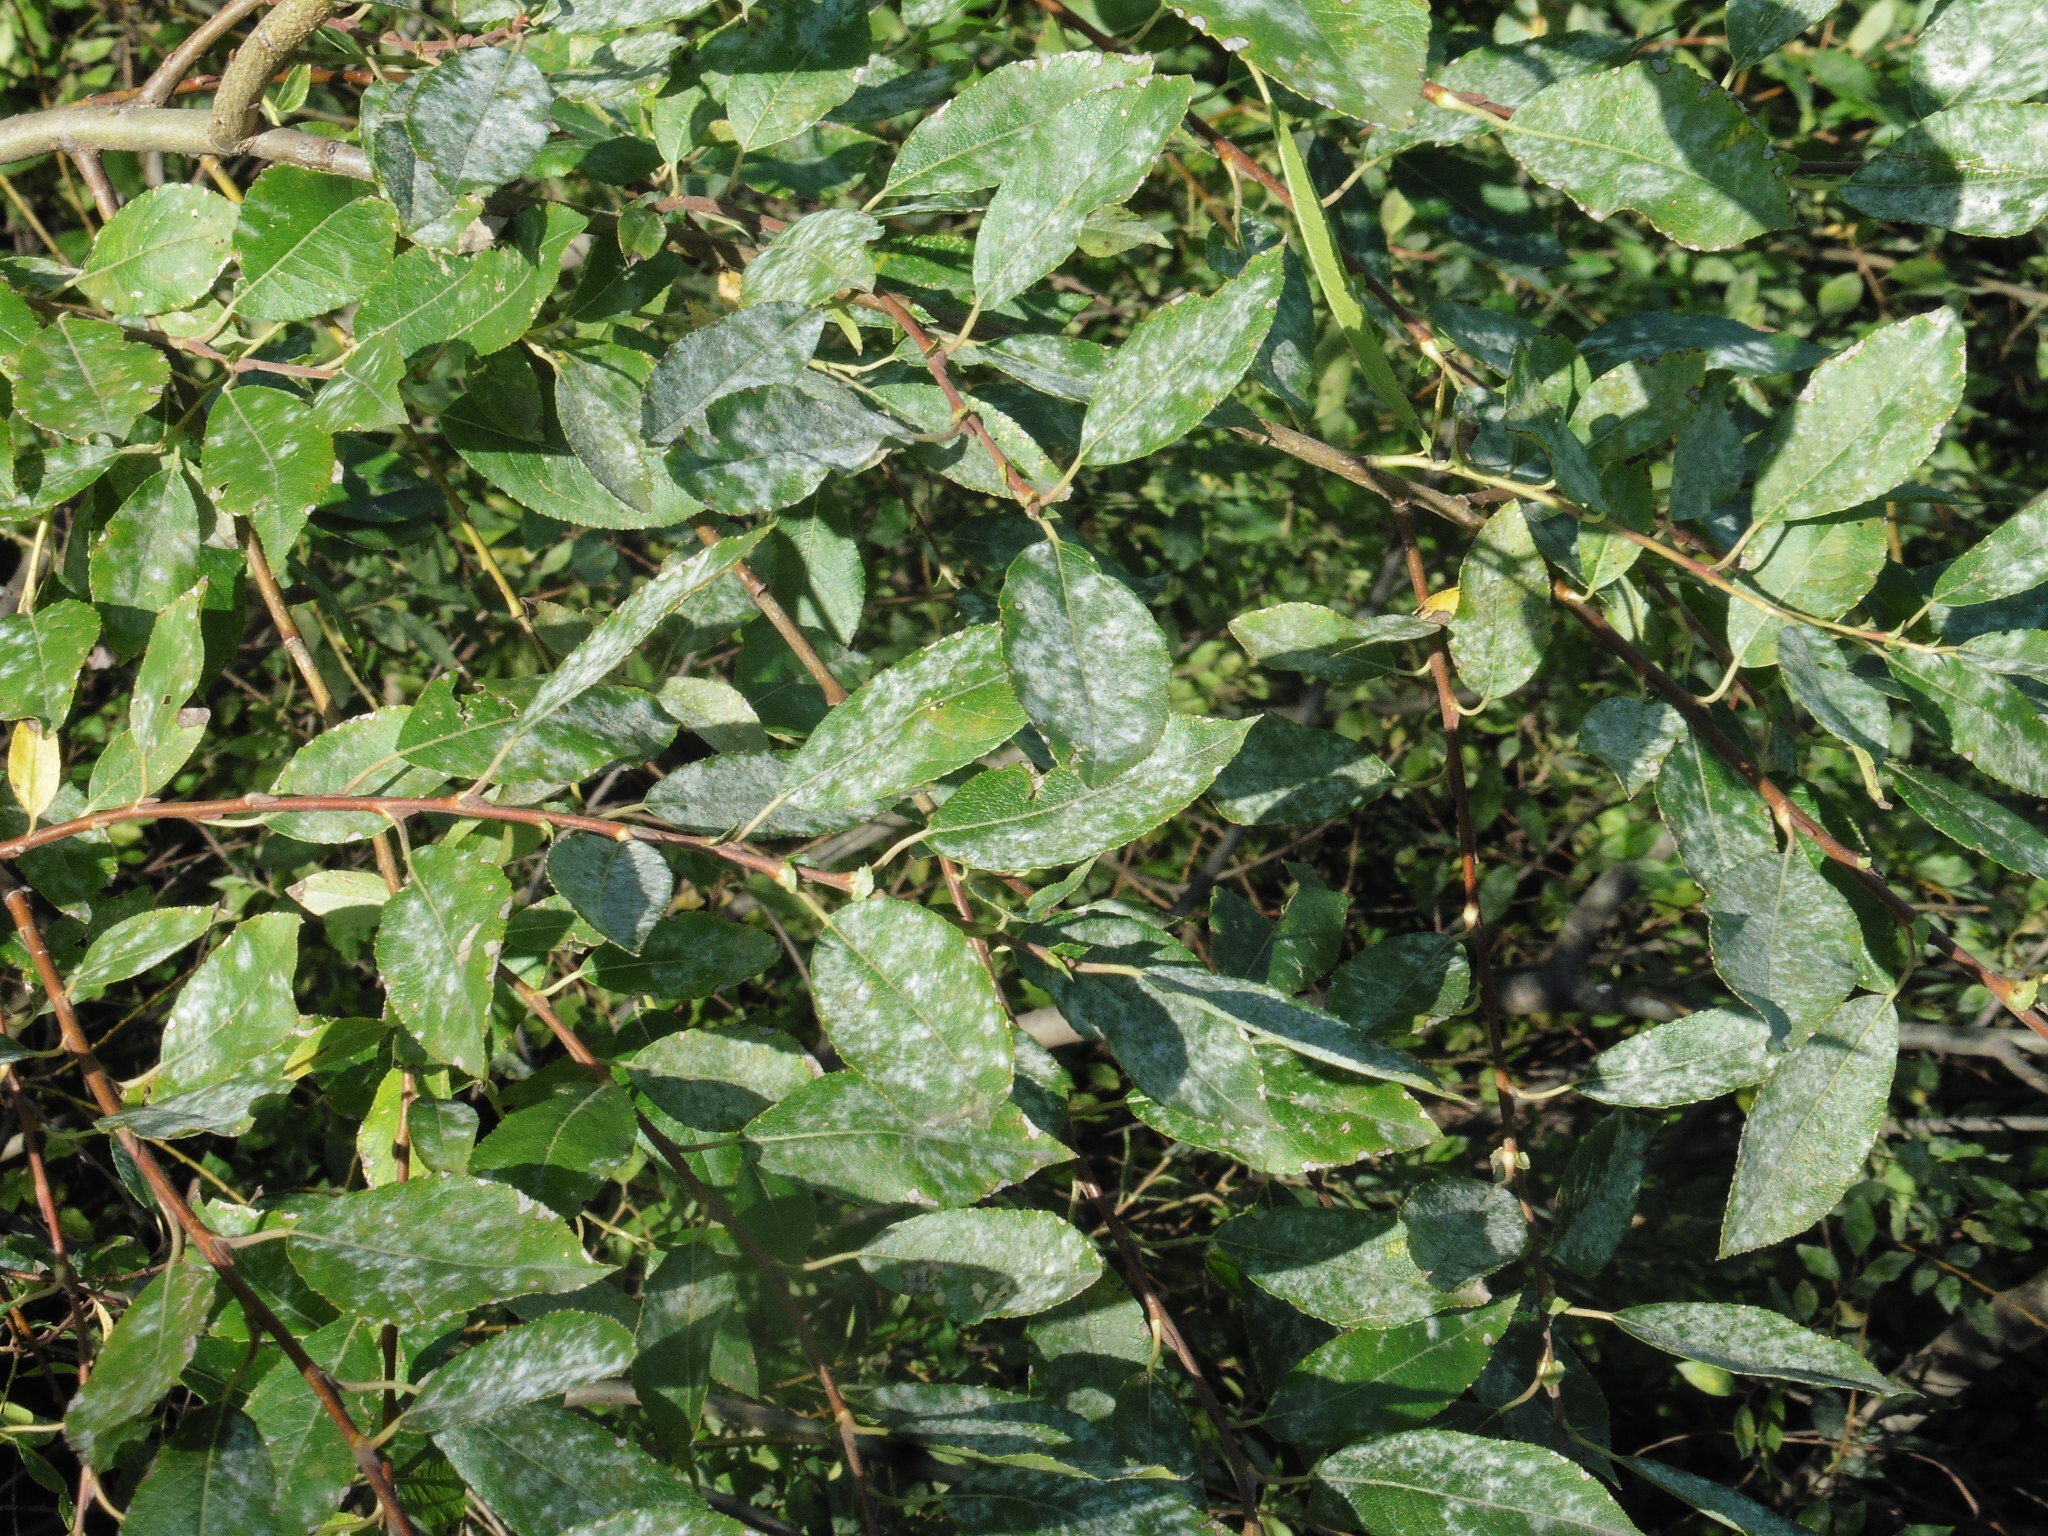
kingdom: Plantae
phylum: Tracheophyta
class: Magnoliopsida
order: Malpighiales
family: Salicaceae
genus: Salix
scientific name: Salix myrsinifolia
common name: Dark-leaved willow
